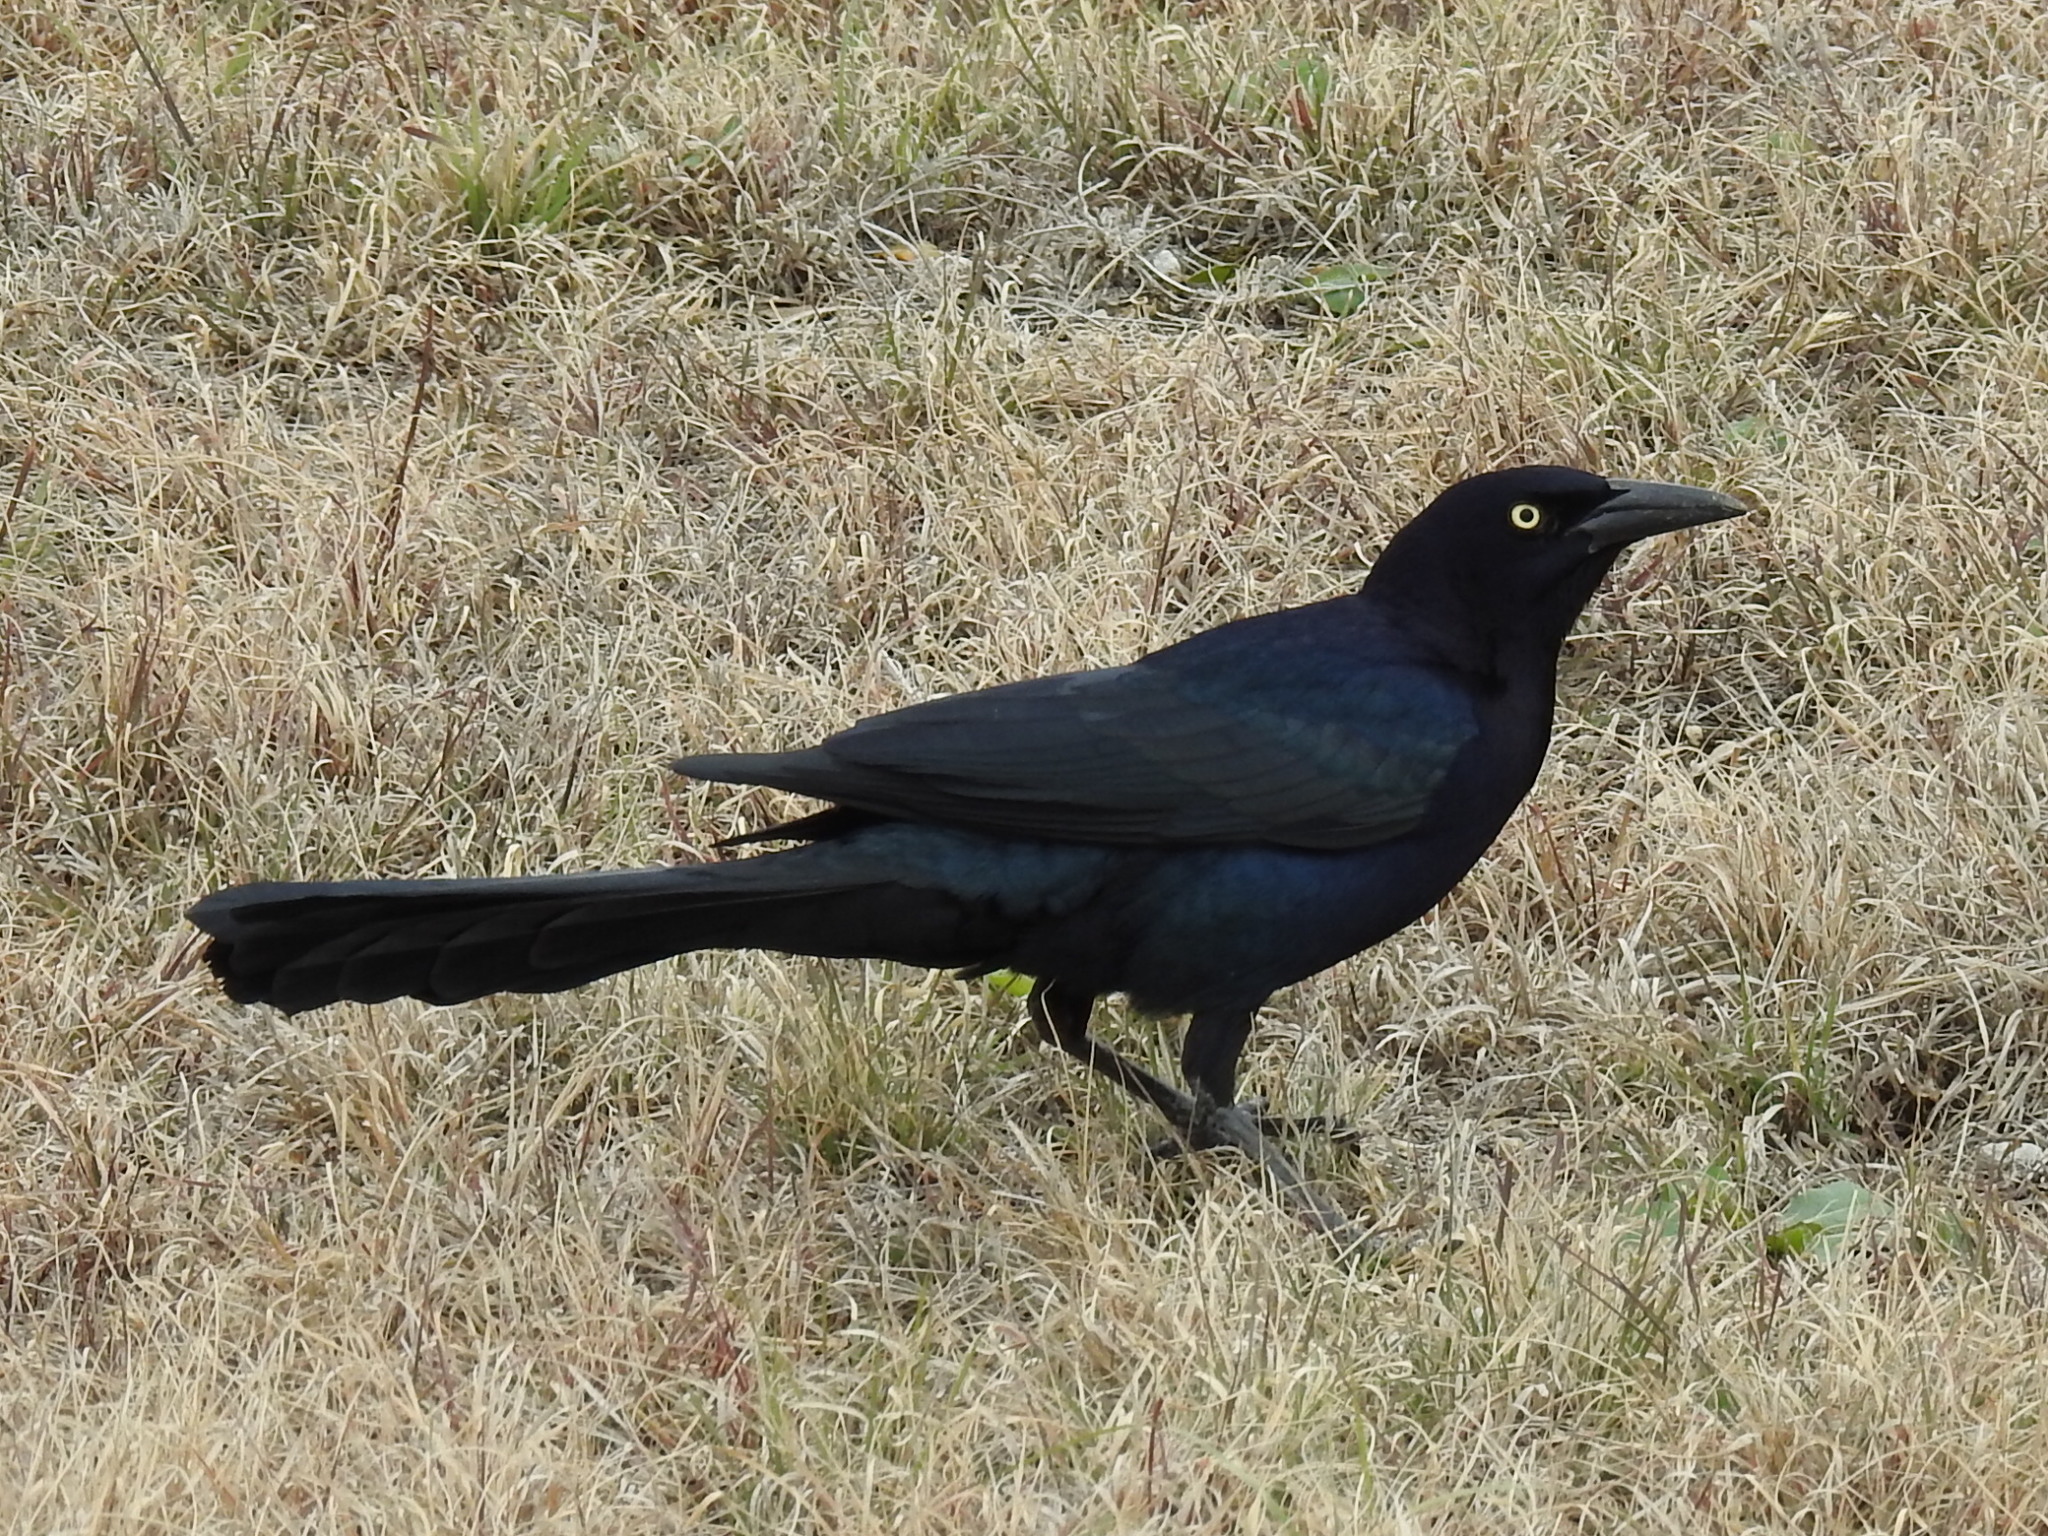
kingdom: Animalia
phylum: Chordata
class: Aves
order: Passeriformes
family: Icteridae
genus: Quiscalus
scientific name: Quiscalus mexicanus
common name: Great-tailed grackle
